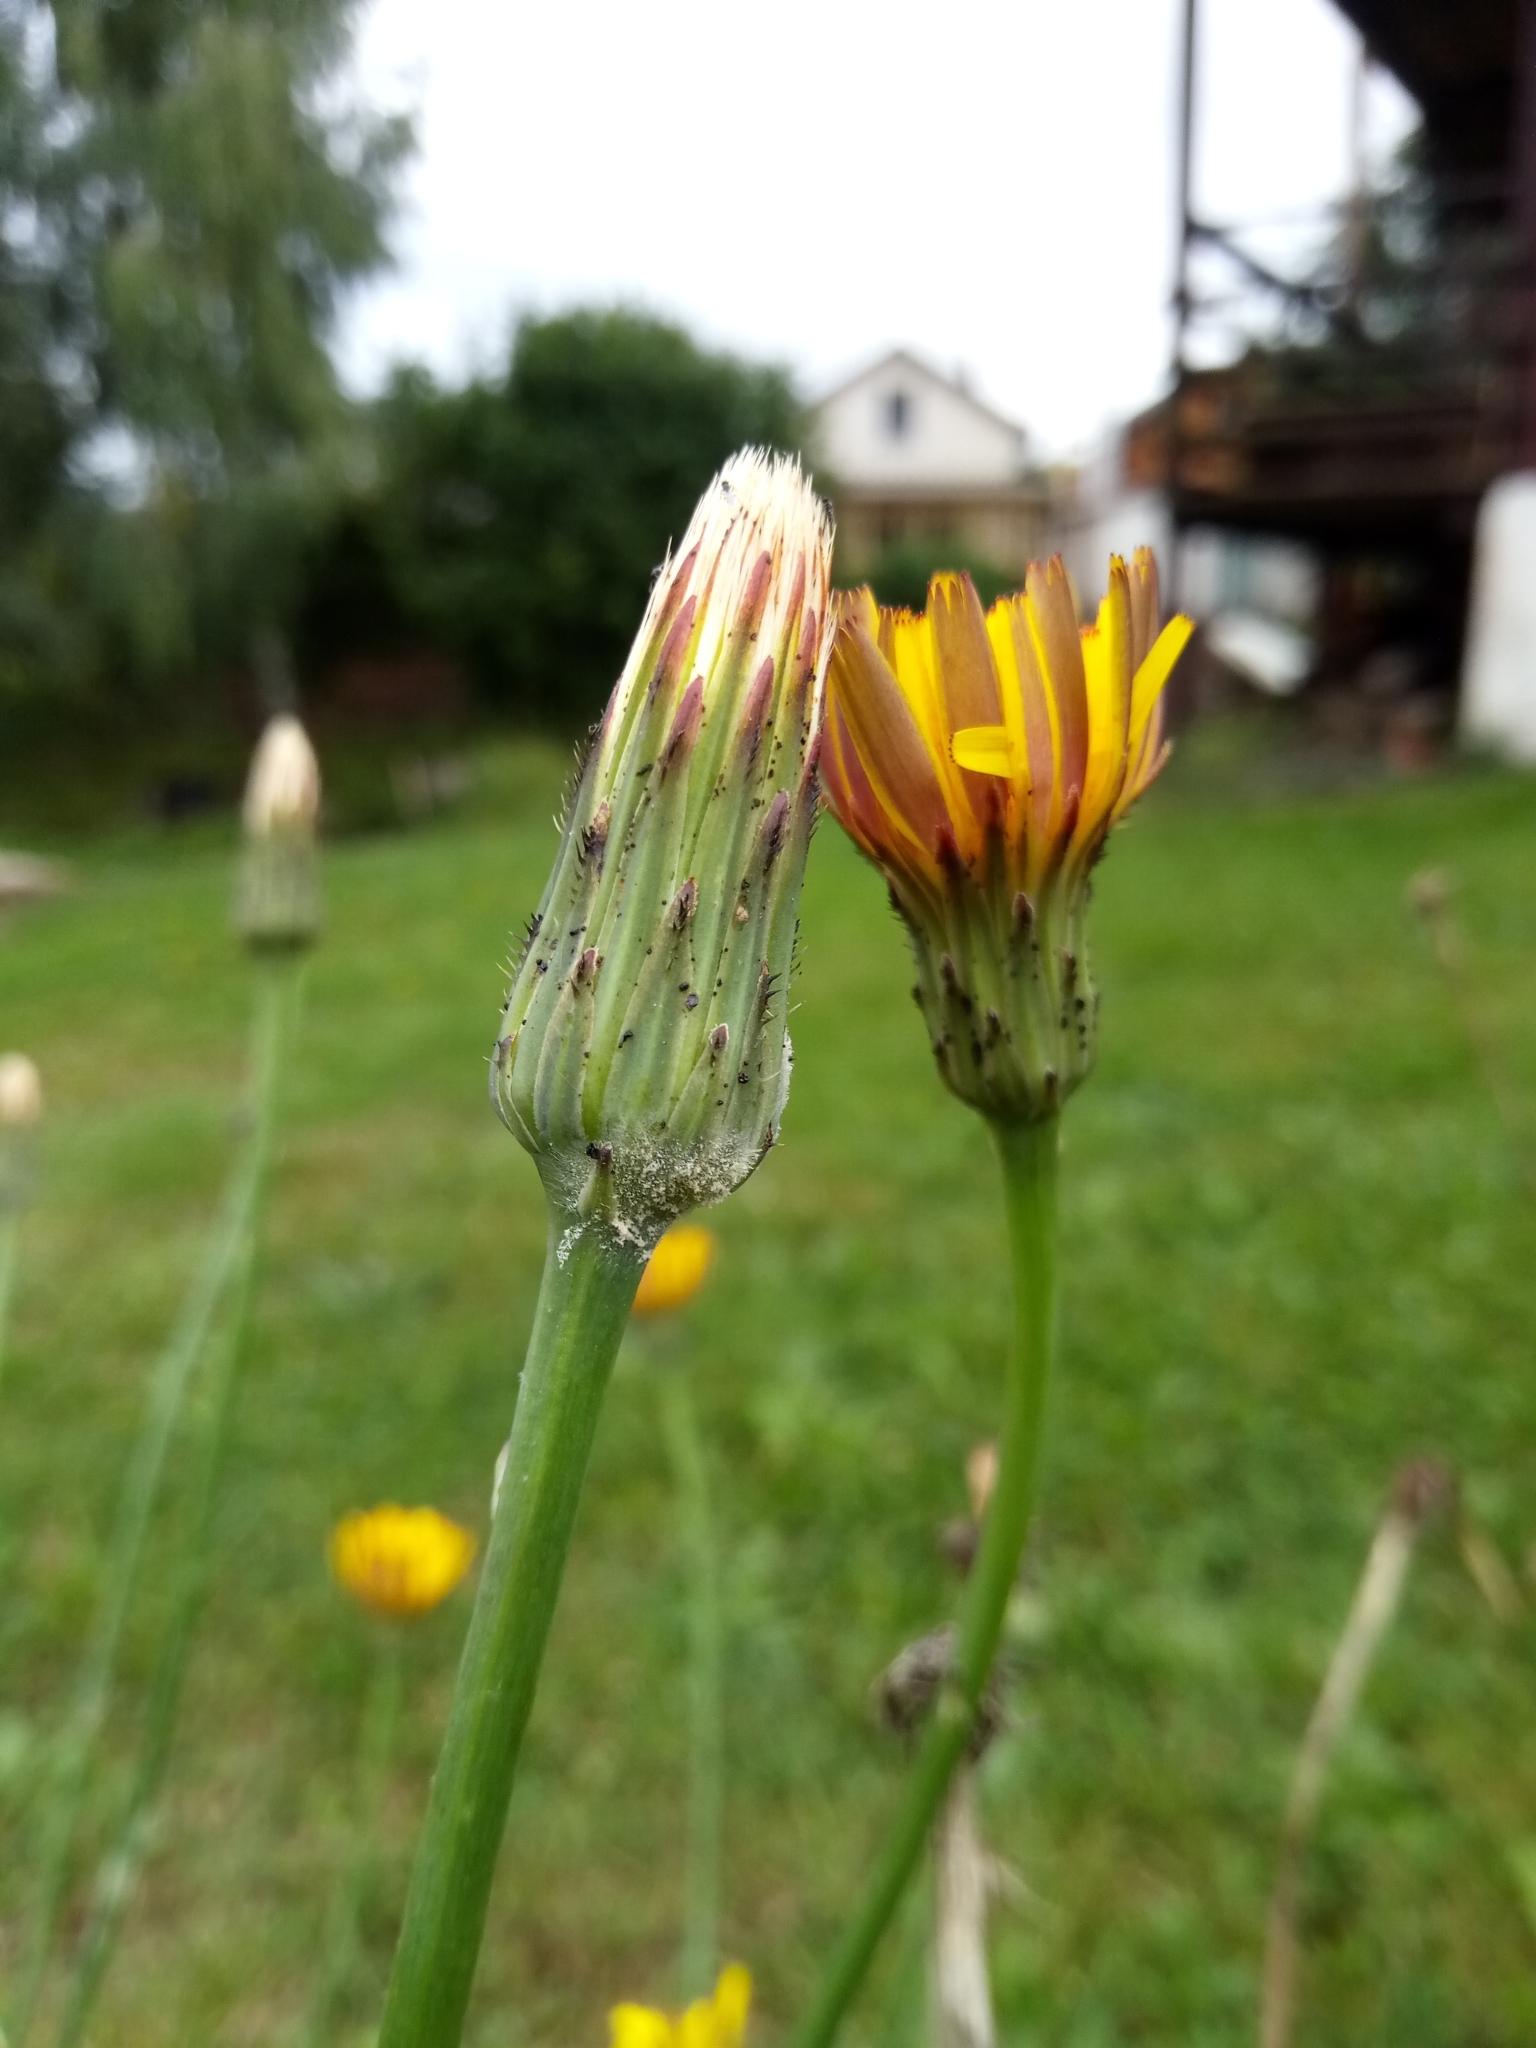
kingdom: Plantae
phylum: Tracheophyta
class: Magnoliopsida
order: Asterales
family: Asteraceae
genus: Hypochaeris
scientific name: Hypochaeris radicata
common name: Flatweed
